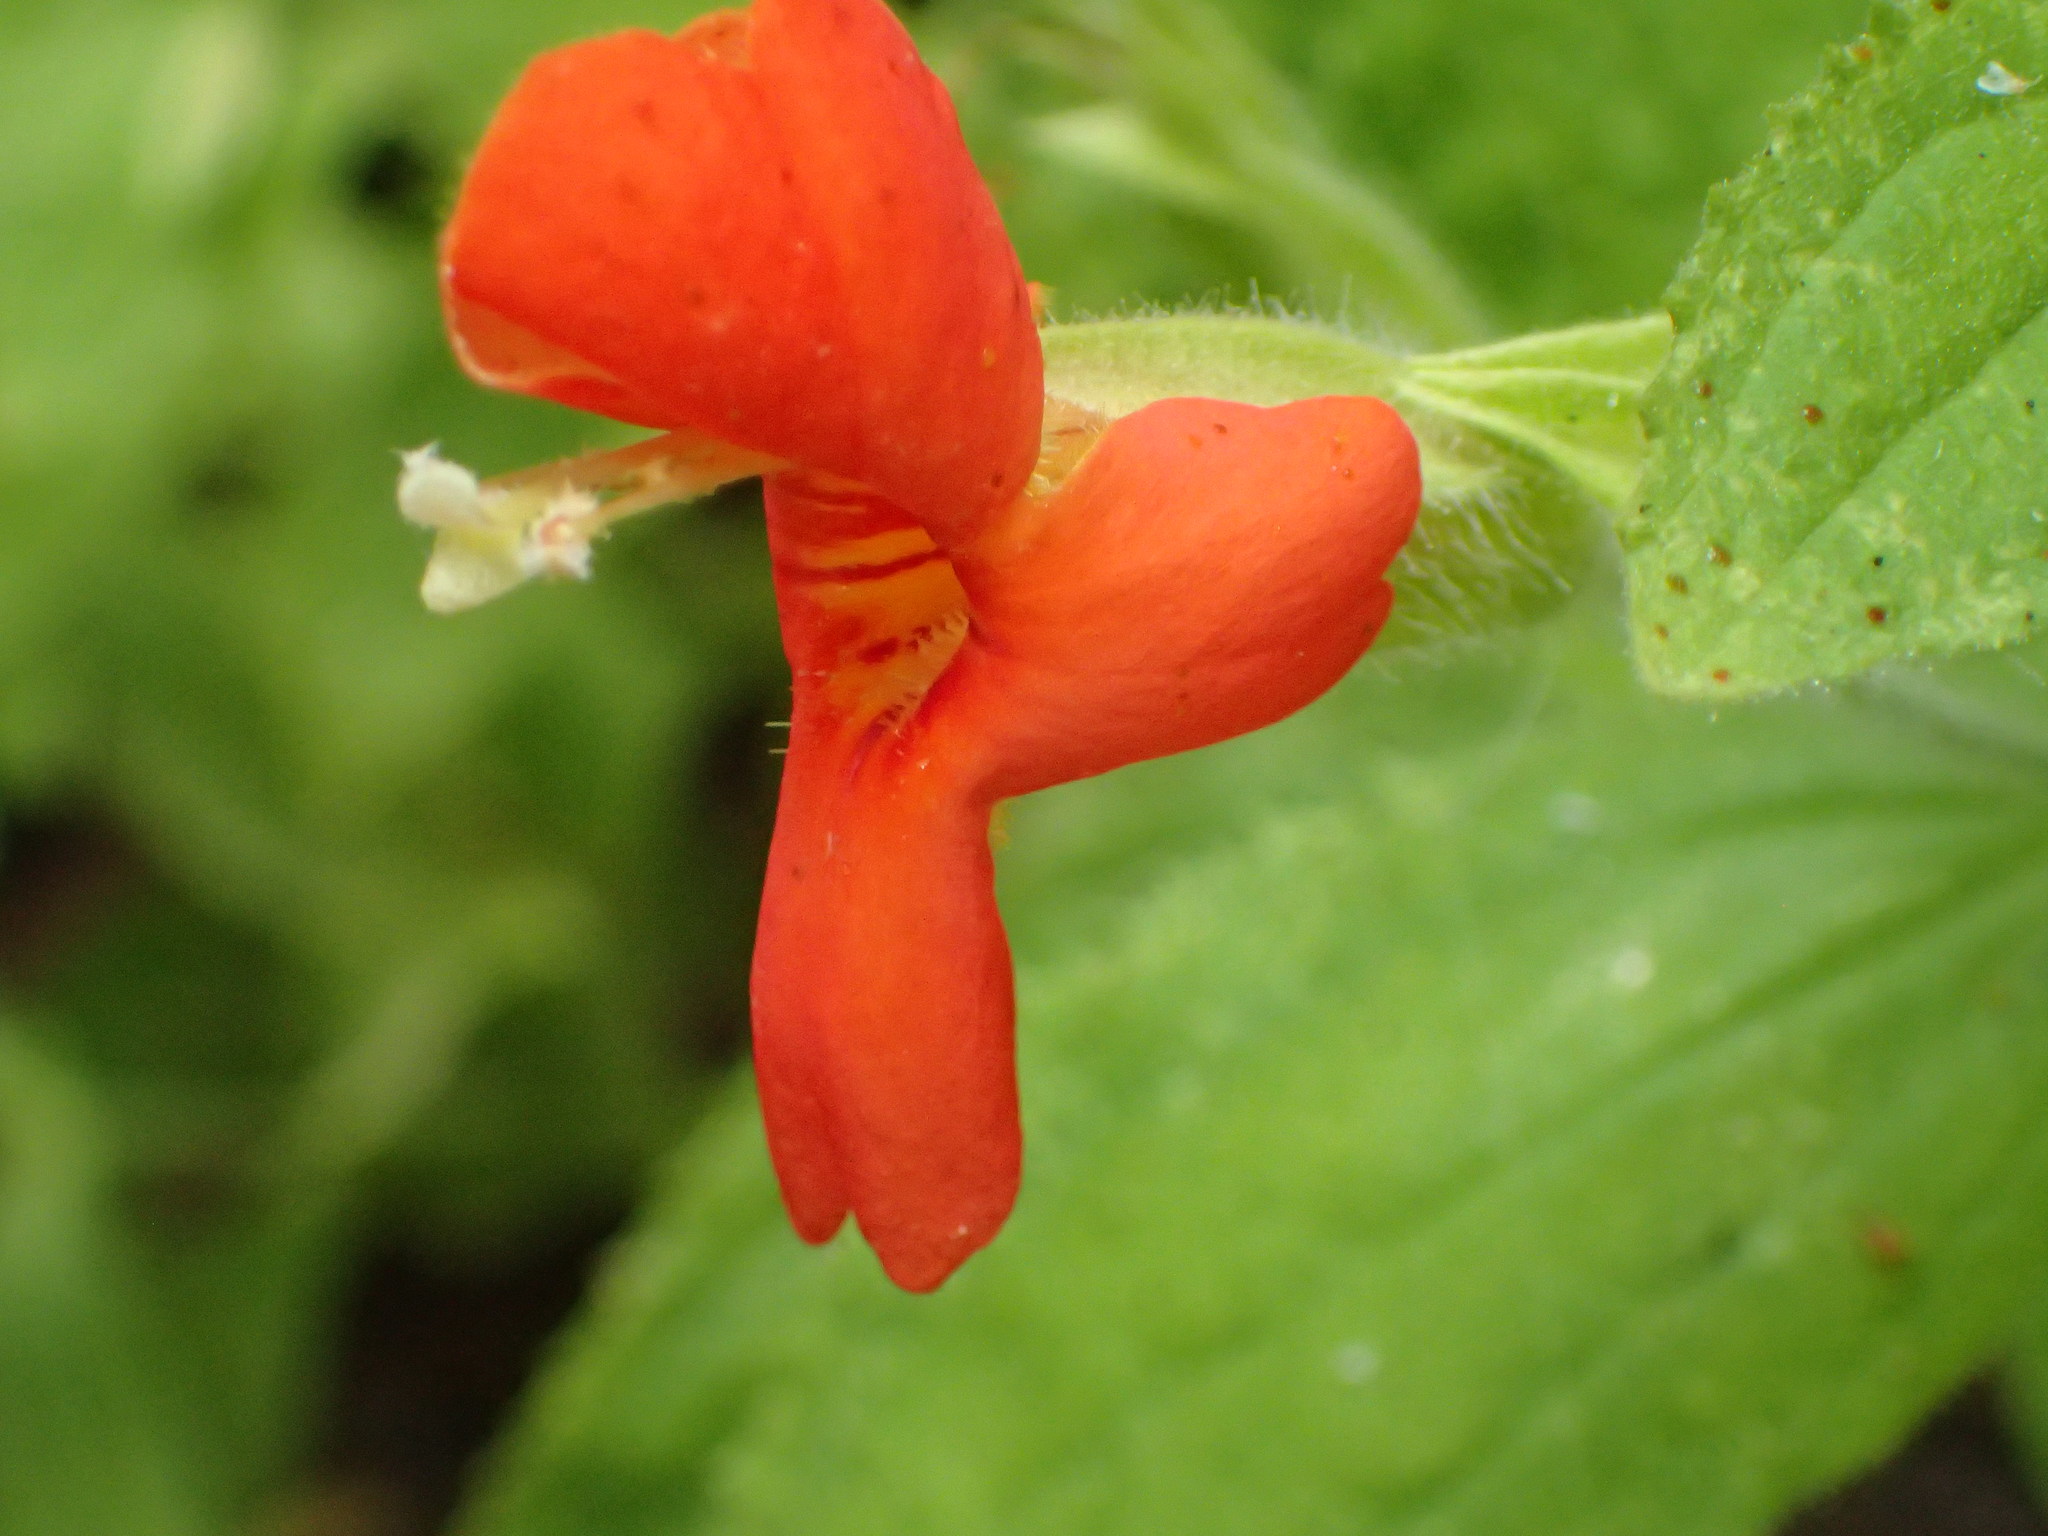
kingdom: Plantae
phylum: Tracheophyta
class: Magnoliopsida
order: Lamiales
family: Phrymaceae
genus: Erythranthe
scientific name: Erythranthe cardinalis
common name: Scarlet monkey-flower
